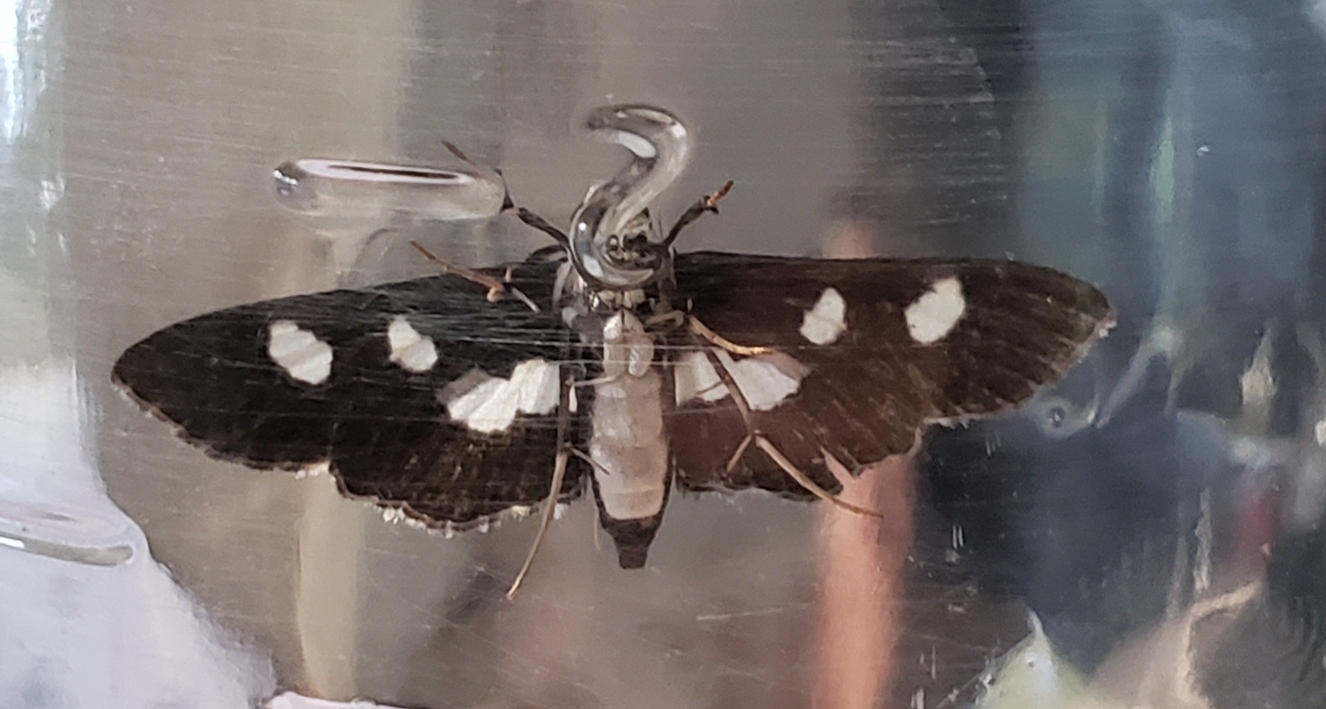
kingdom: Animalia
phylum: Arthropoda
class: Insecta
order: Lepidoptera
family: Crambidae
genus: Desmia
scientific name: Desmia funeralis
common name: Grape leaf folder moth
